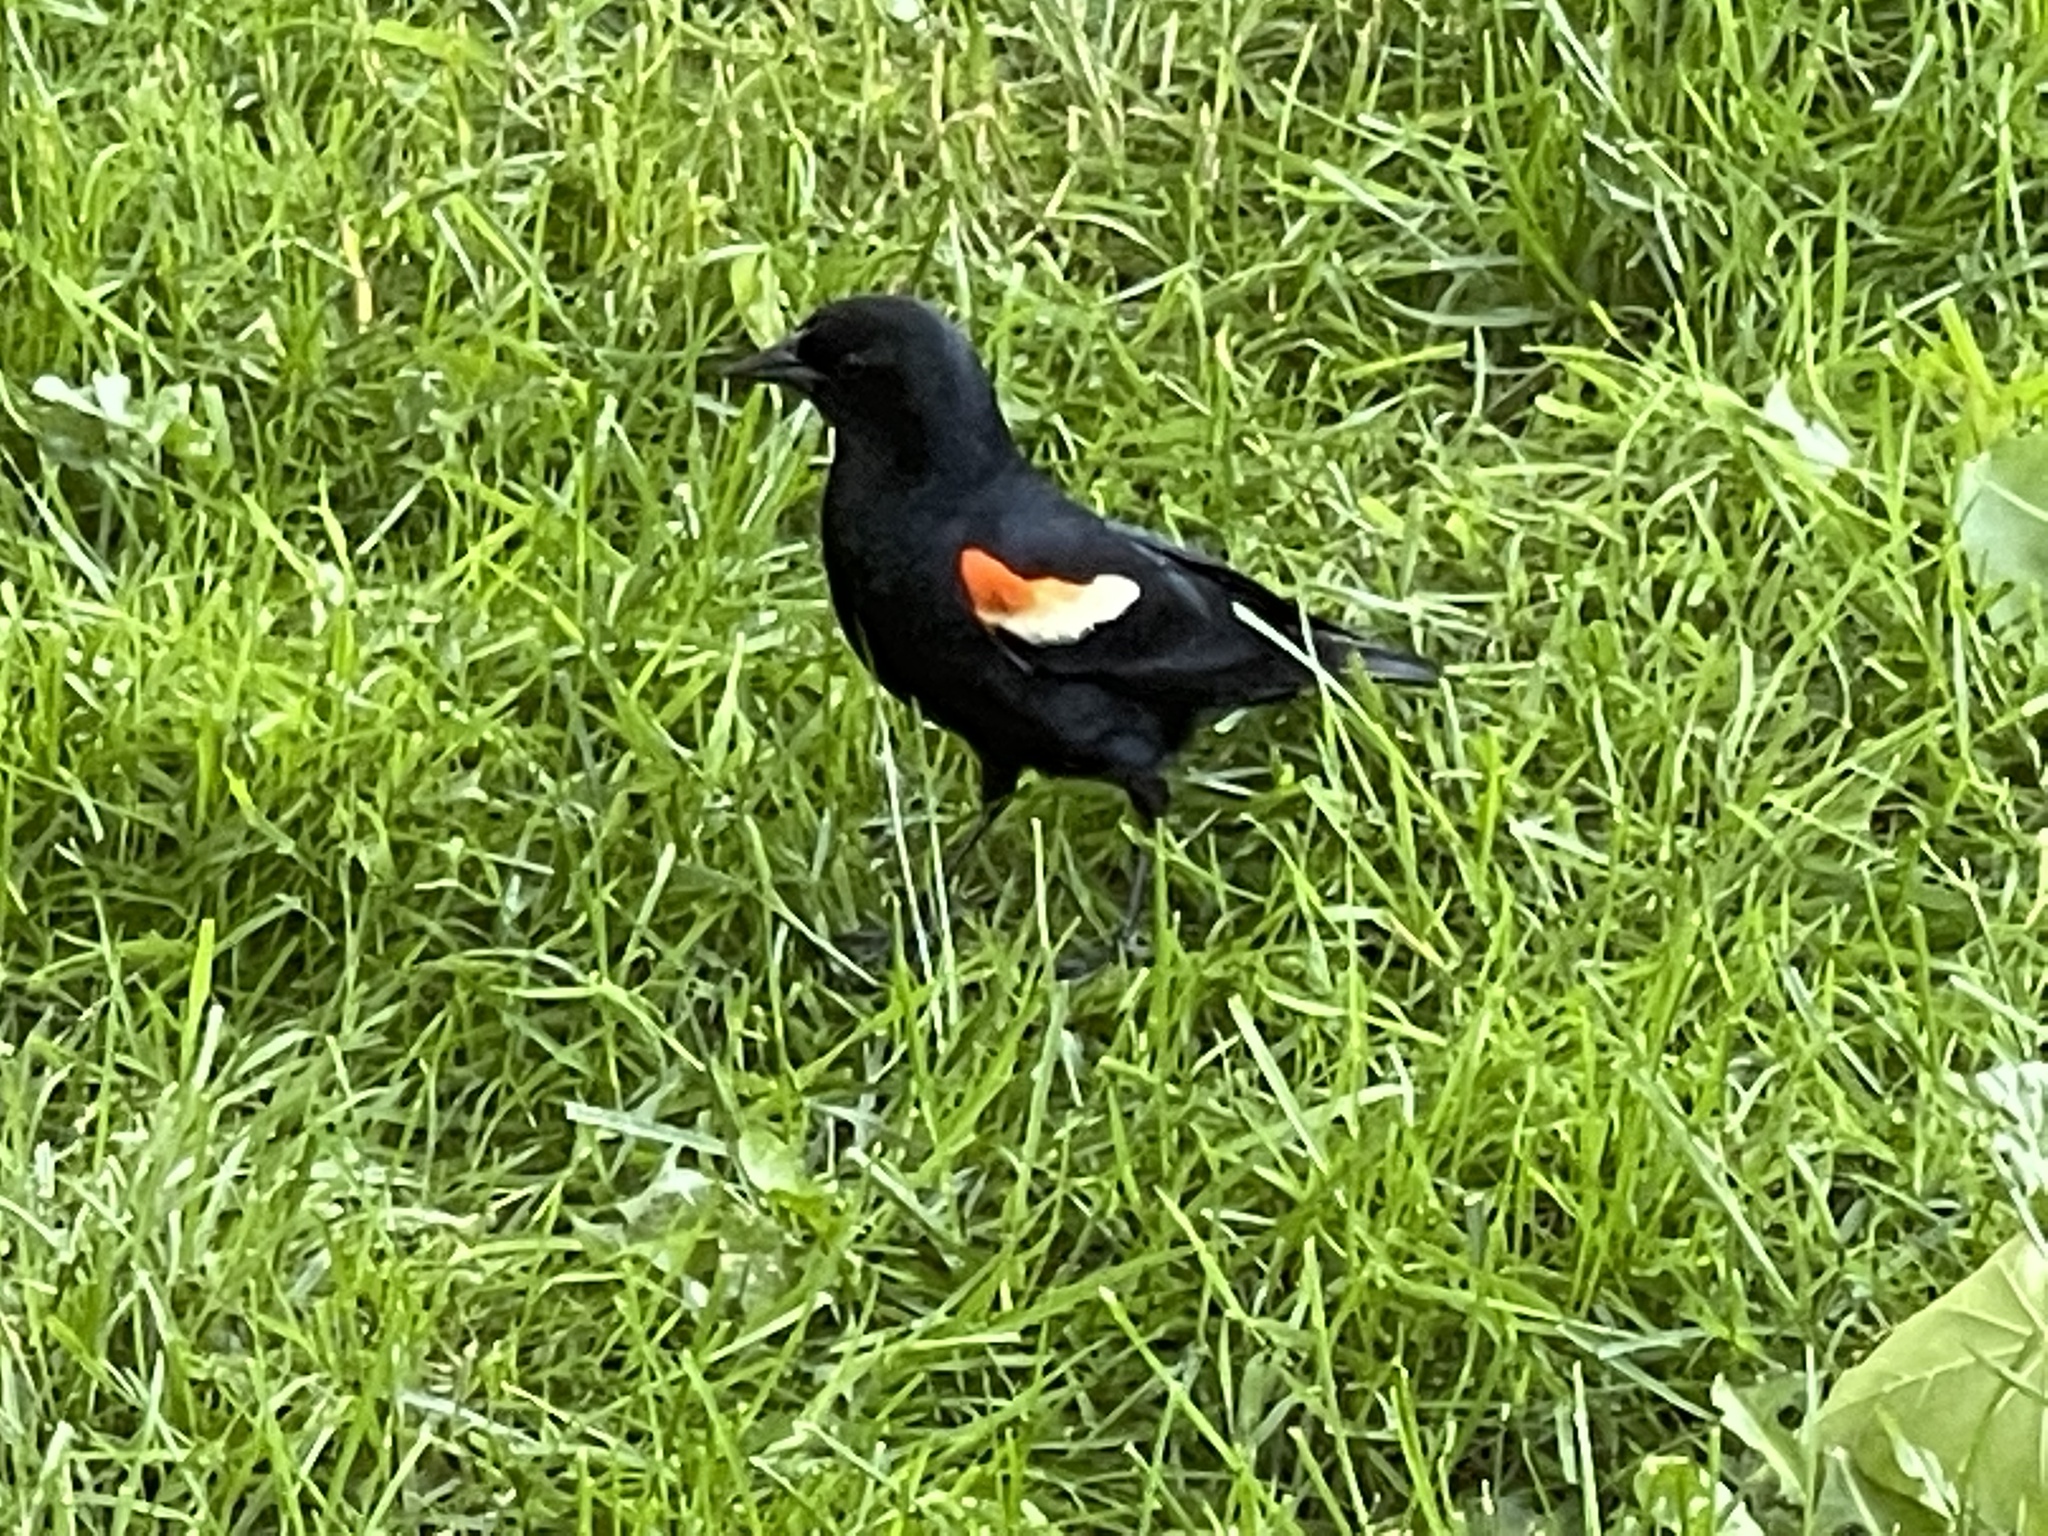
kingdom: Animalia
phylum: Chordata
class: Aves
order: Passeriformes
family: Icteridae
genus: Agelaius
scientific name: Agelaius phoeniceus
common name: Red-winged blackbird
